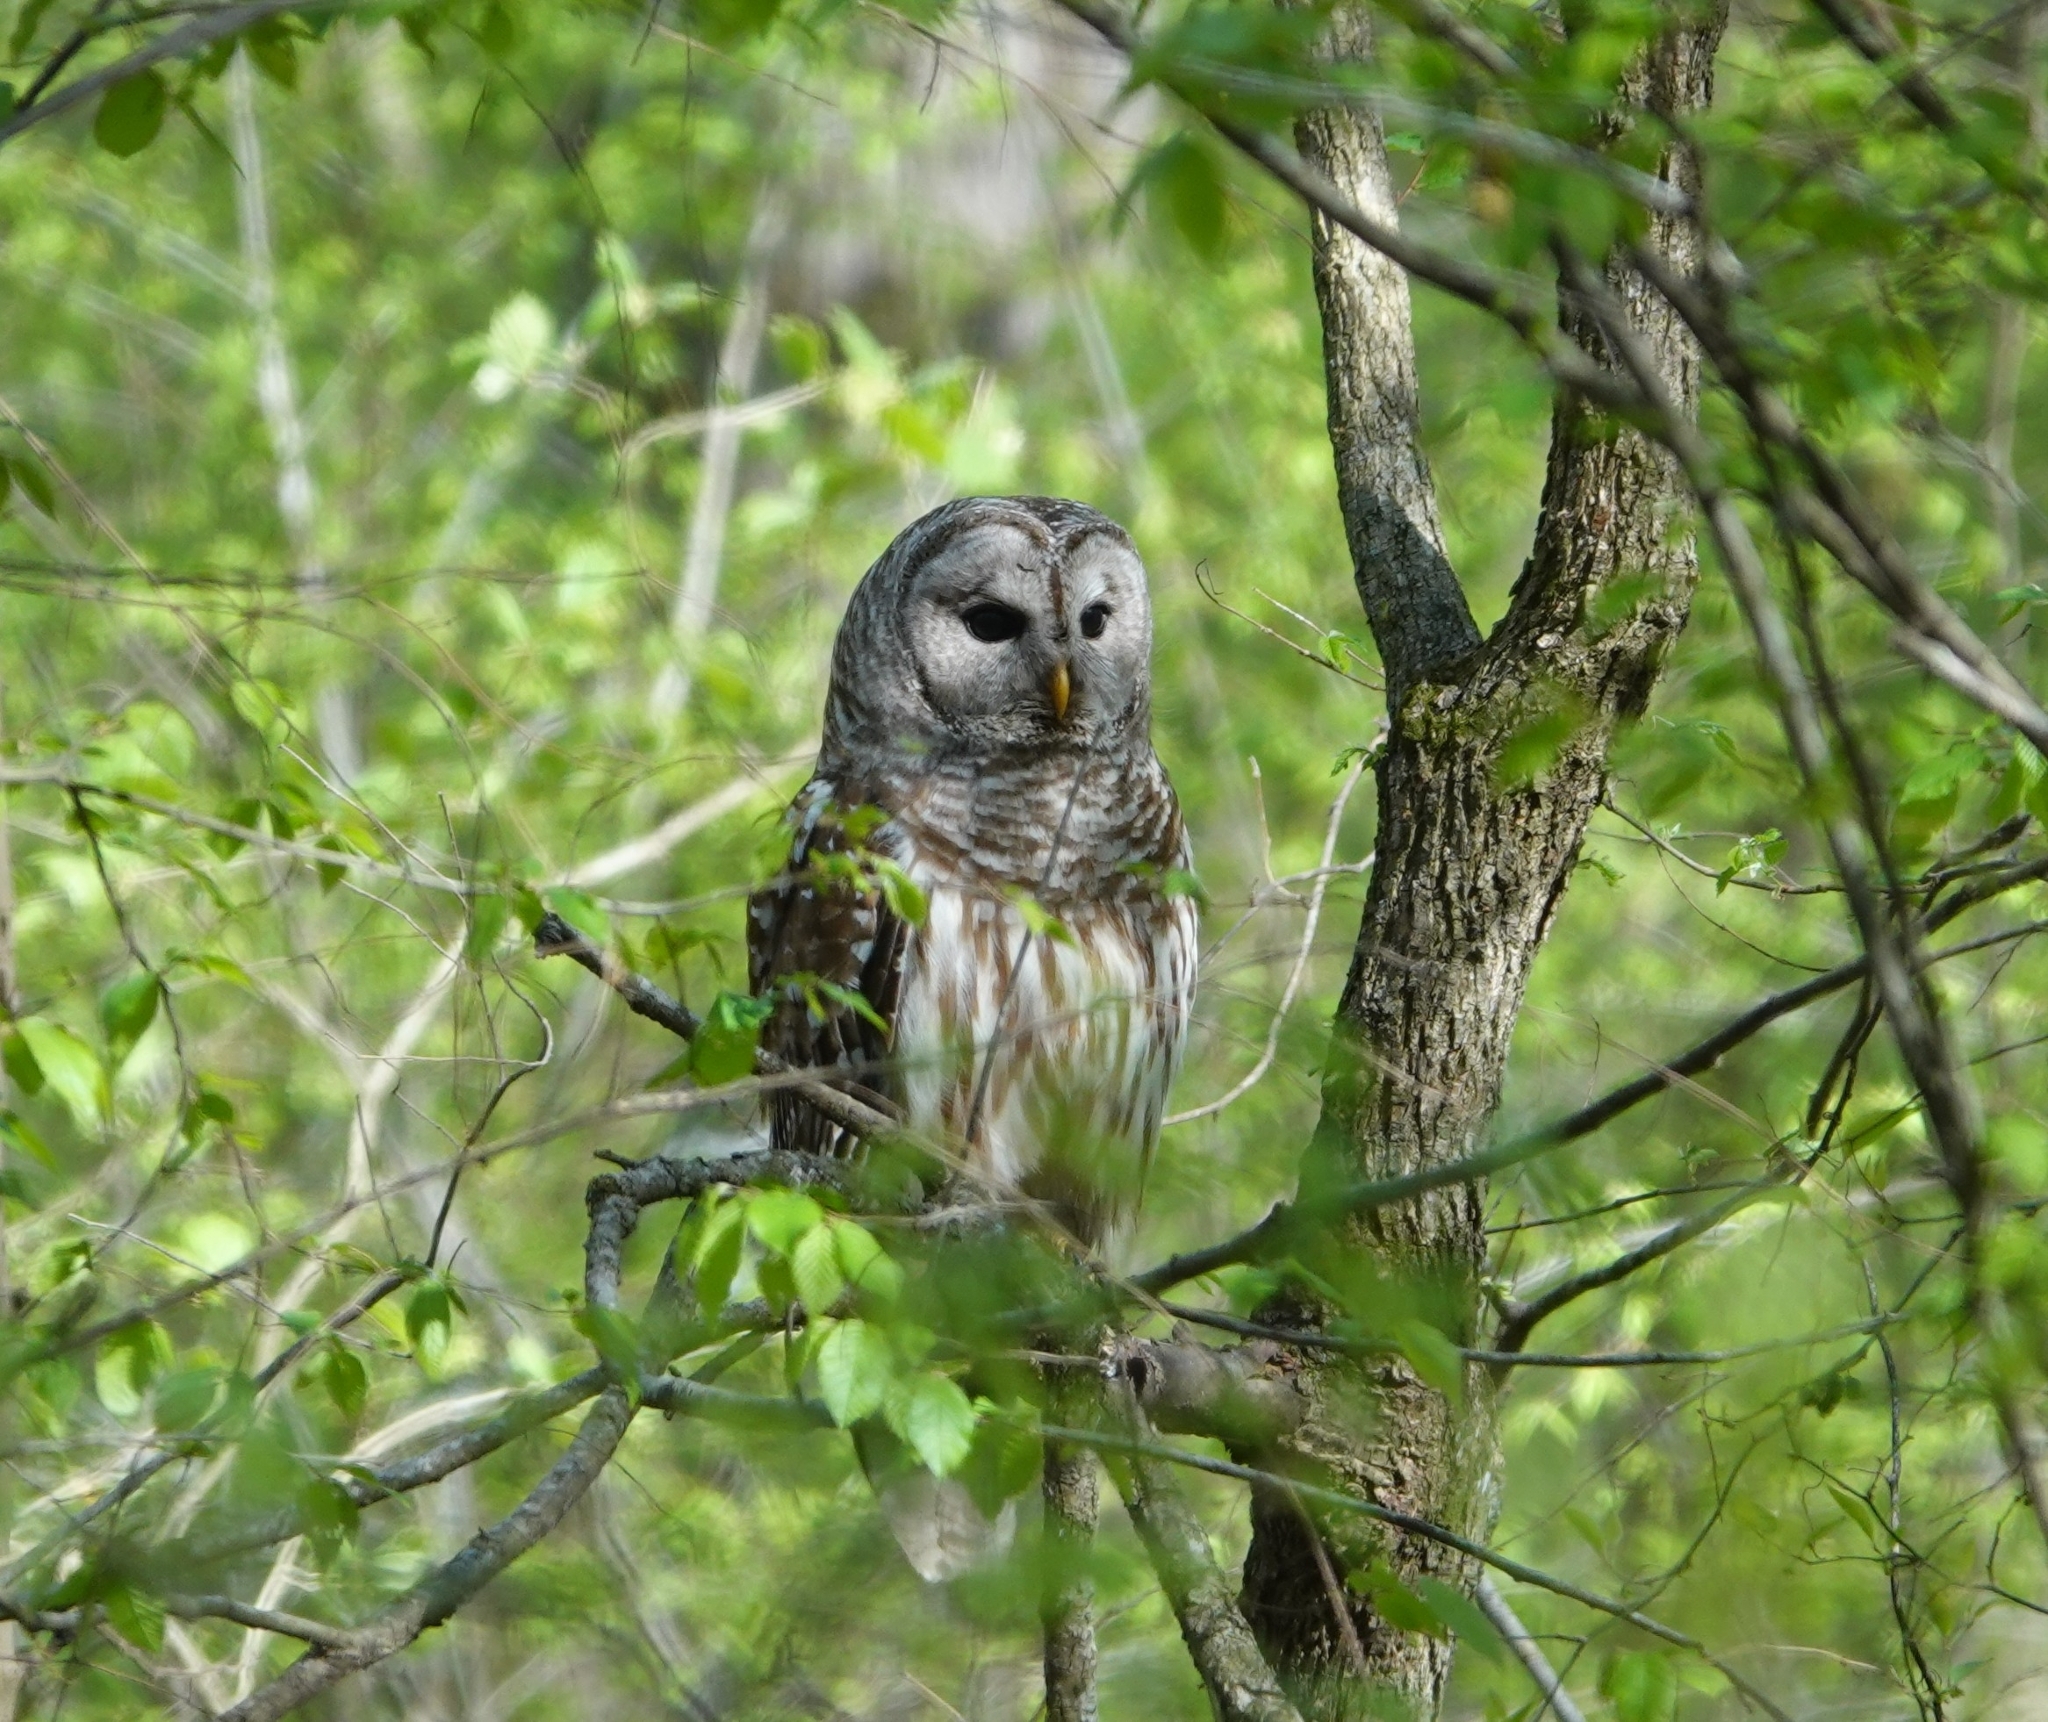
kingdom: Animalia
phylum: Chordata
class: Aves
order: Strigiformes
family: Strigidae
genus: Strix
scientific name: Strix varia
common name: Barred owl
